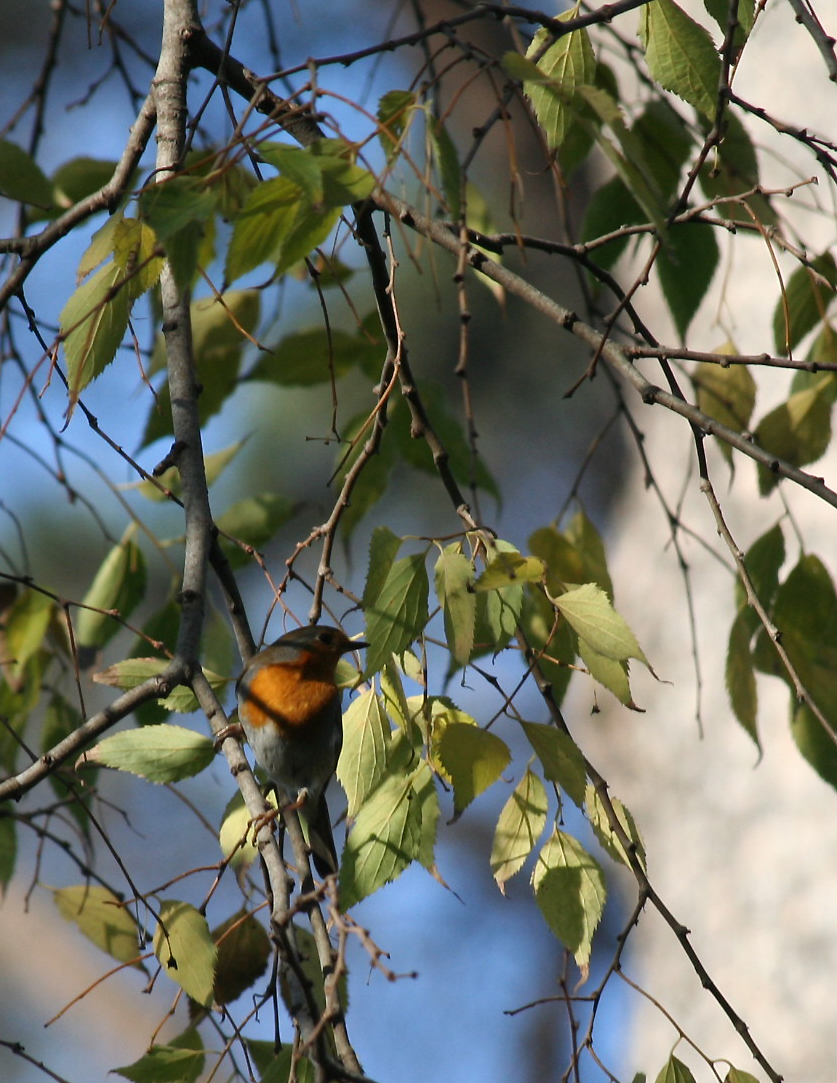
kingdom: Animalia
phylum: Chordata
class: Aves
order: Passeriformes
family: Muscicapidae
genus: Erithacus
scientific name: Erithacus rubecula
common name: European robin
